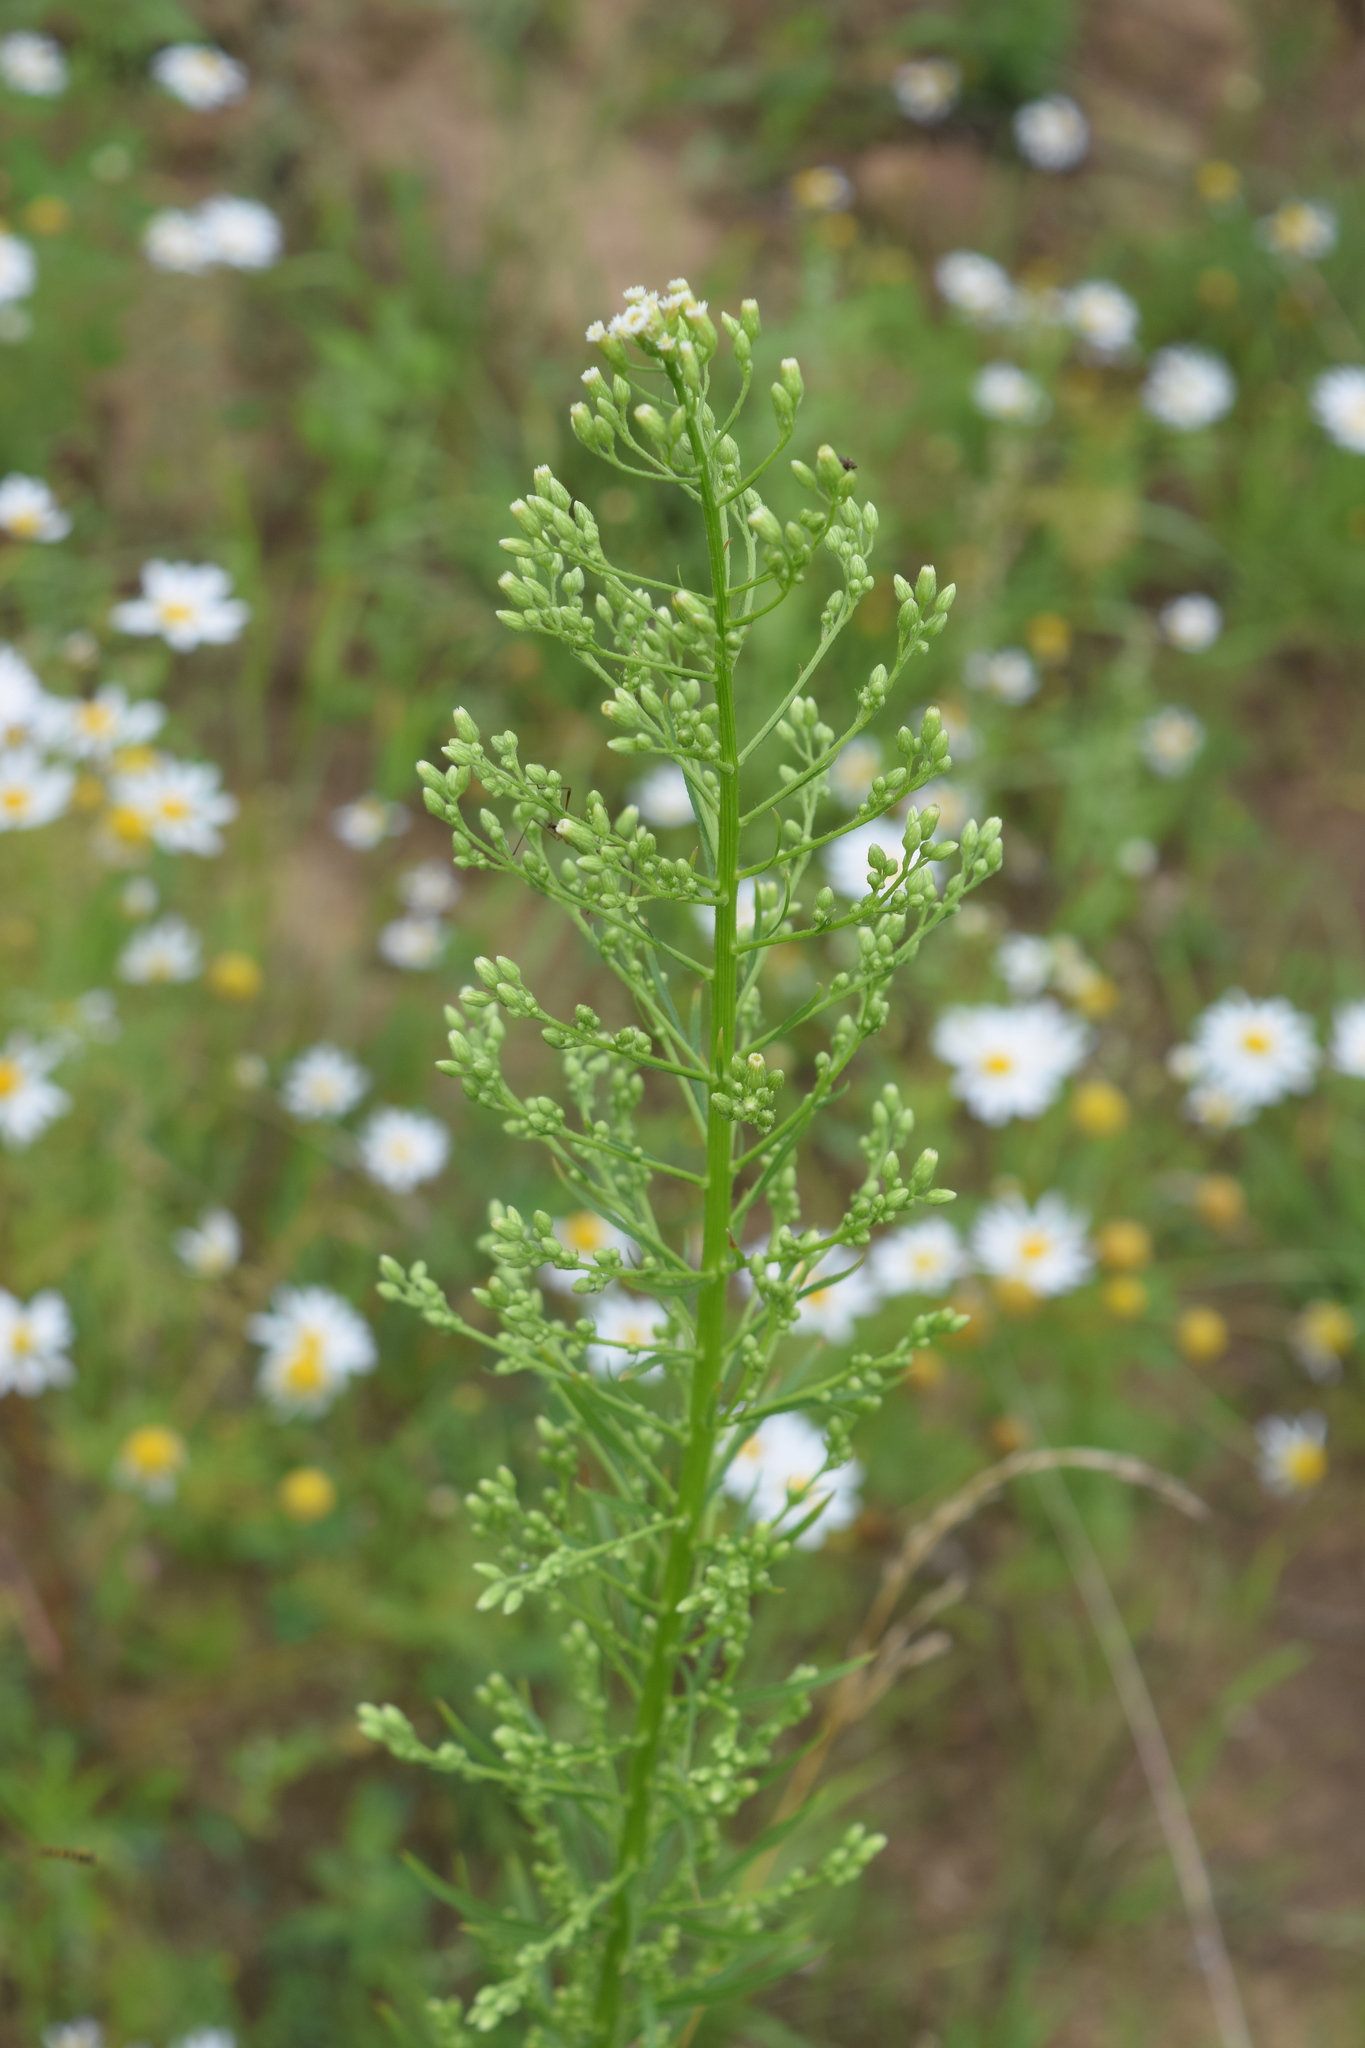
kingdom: Plantae
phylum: Tracheophyta
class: Magnoliopsida
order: Asterales
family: Asteraceae
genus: Erigeron
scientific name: Erigeron canadensis
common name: Canadian fleabane
